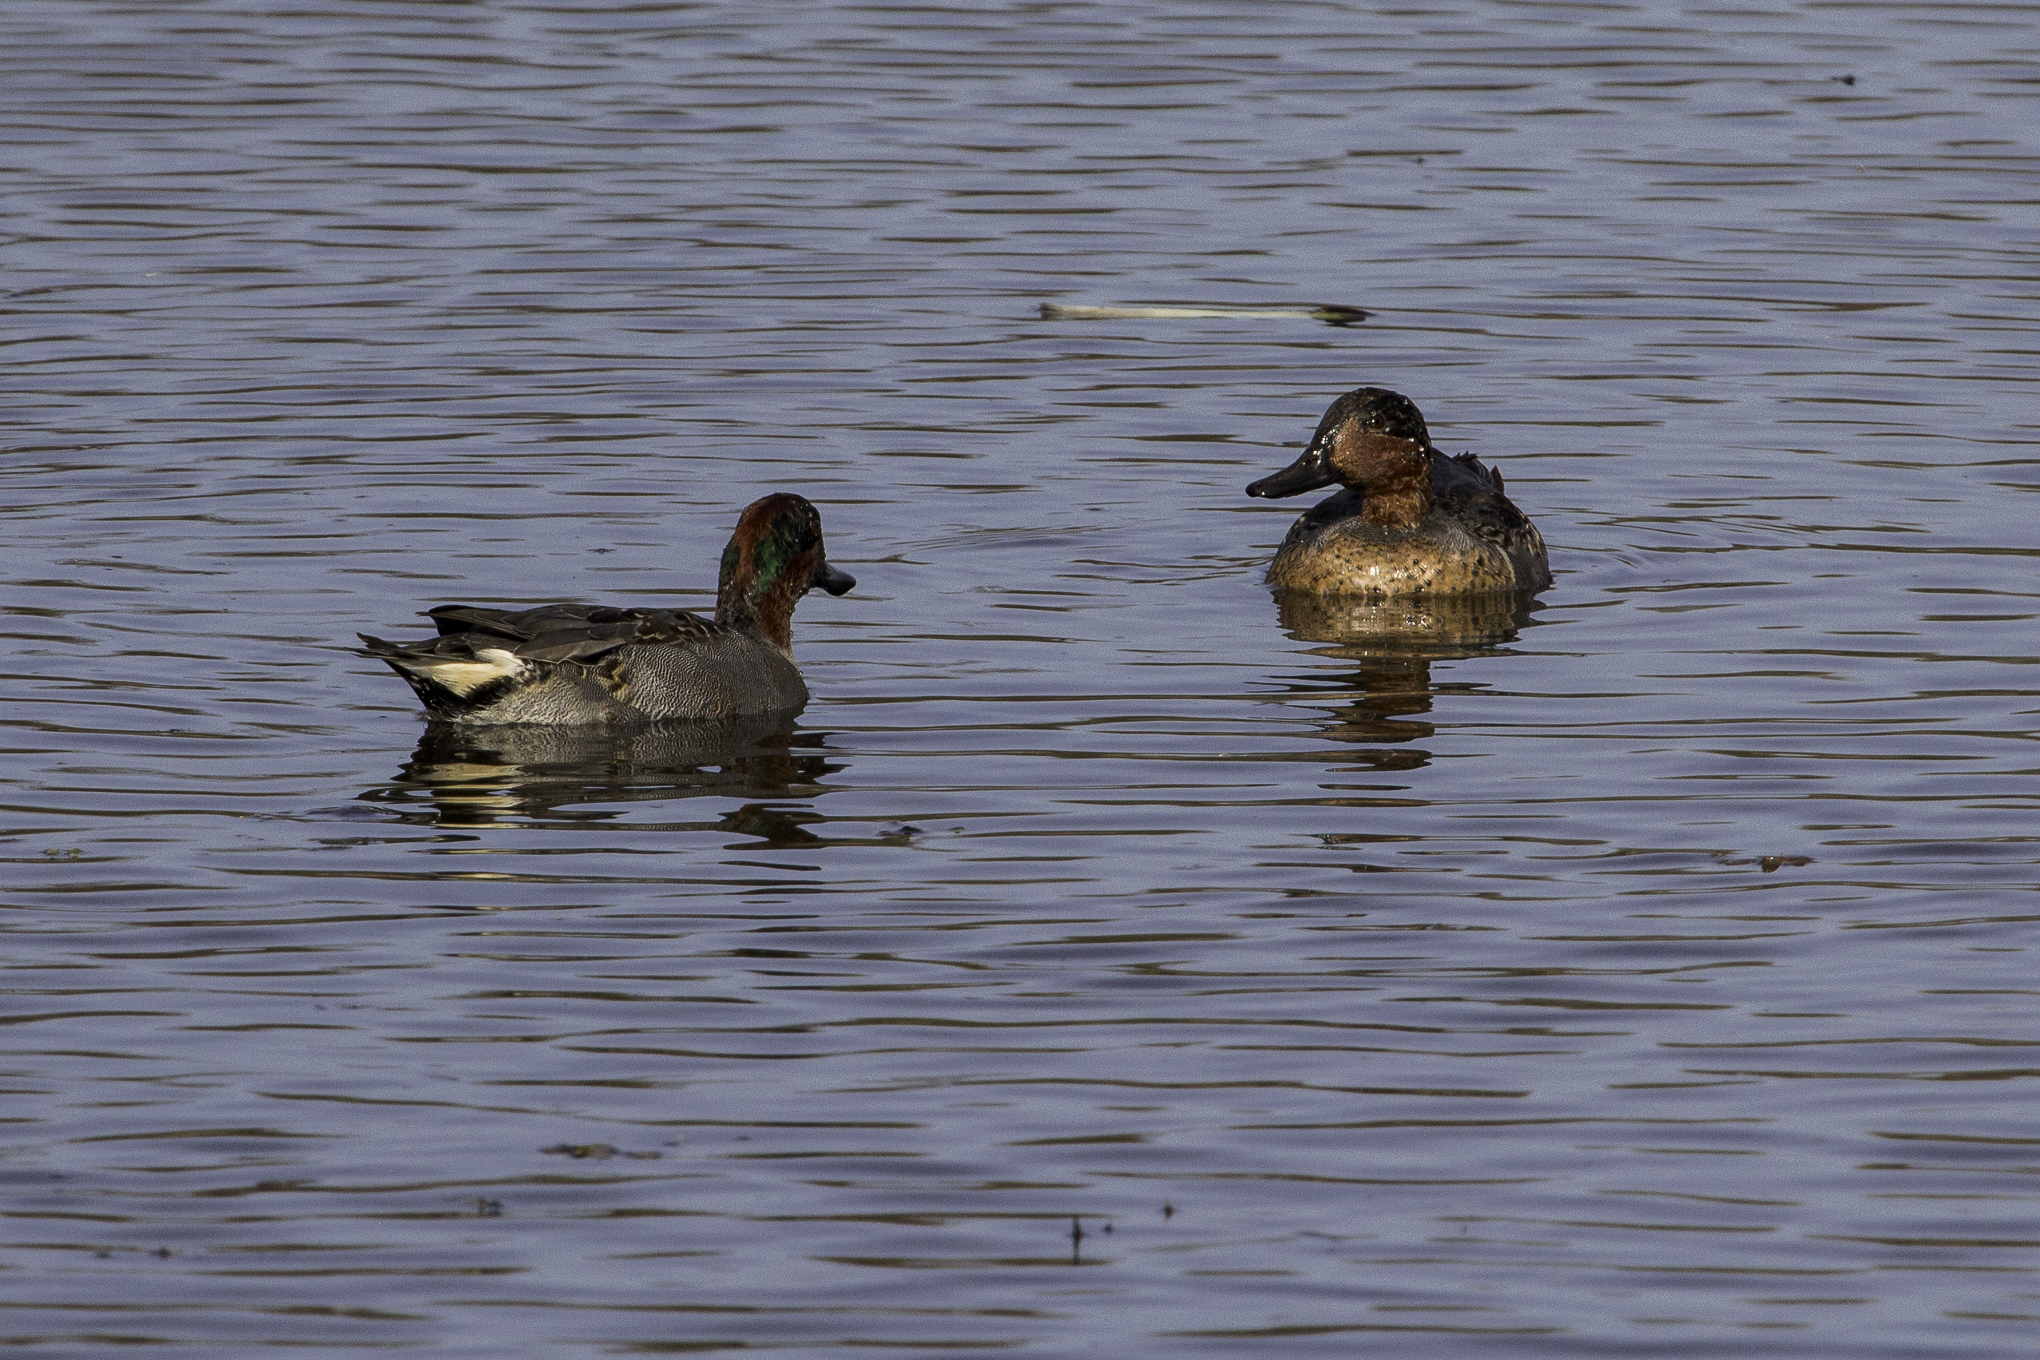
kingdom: Animalia
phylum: Chordata
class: Aves
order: Anseriformes
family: Anatidae
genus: Anas
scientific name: Anas crecca
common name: Eurasian teal
